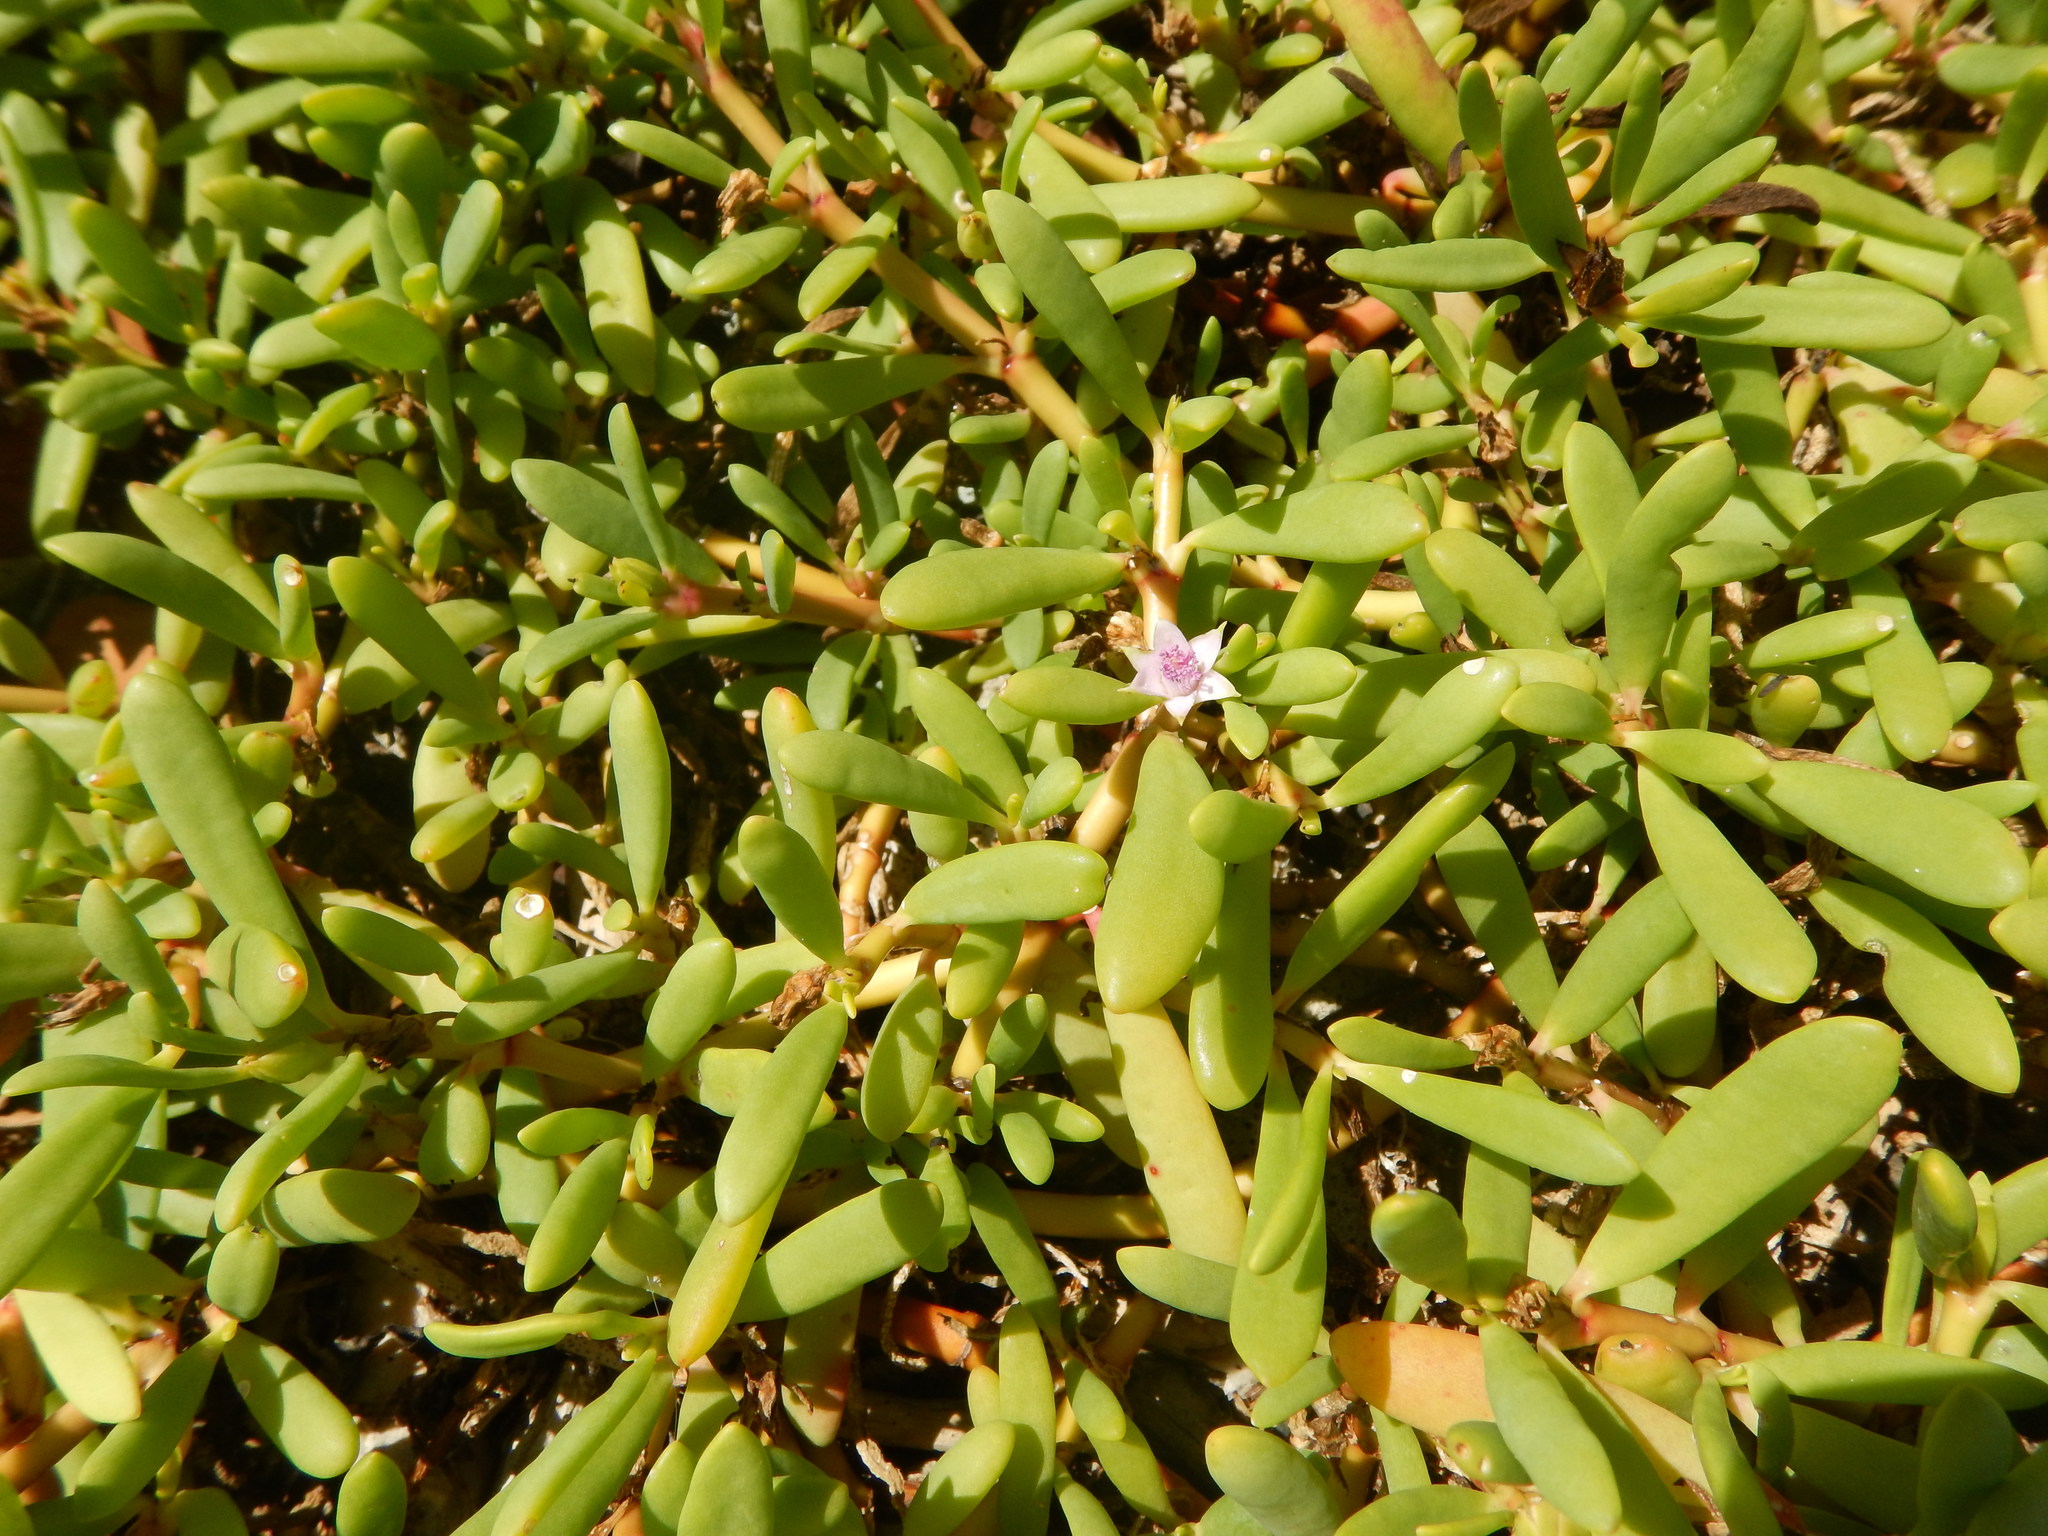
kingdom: Plantae
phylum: Tracheophyta
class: Magnoliopsida
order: Caryophyllales
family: Aizoaceae
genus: Sesuvium
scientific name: Sesuvium portulacastrum
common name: Sea-purslane
